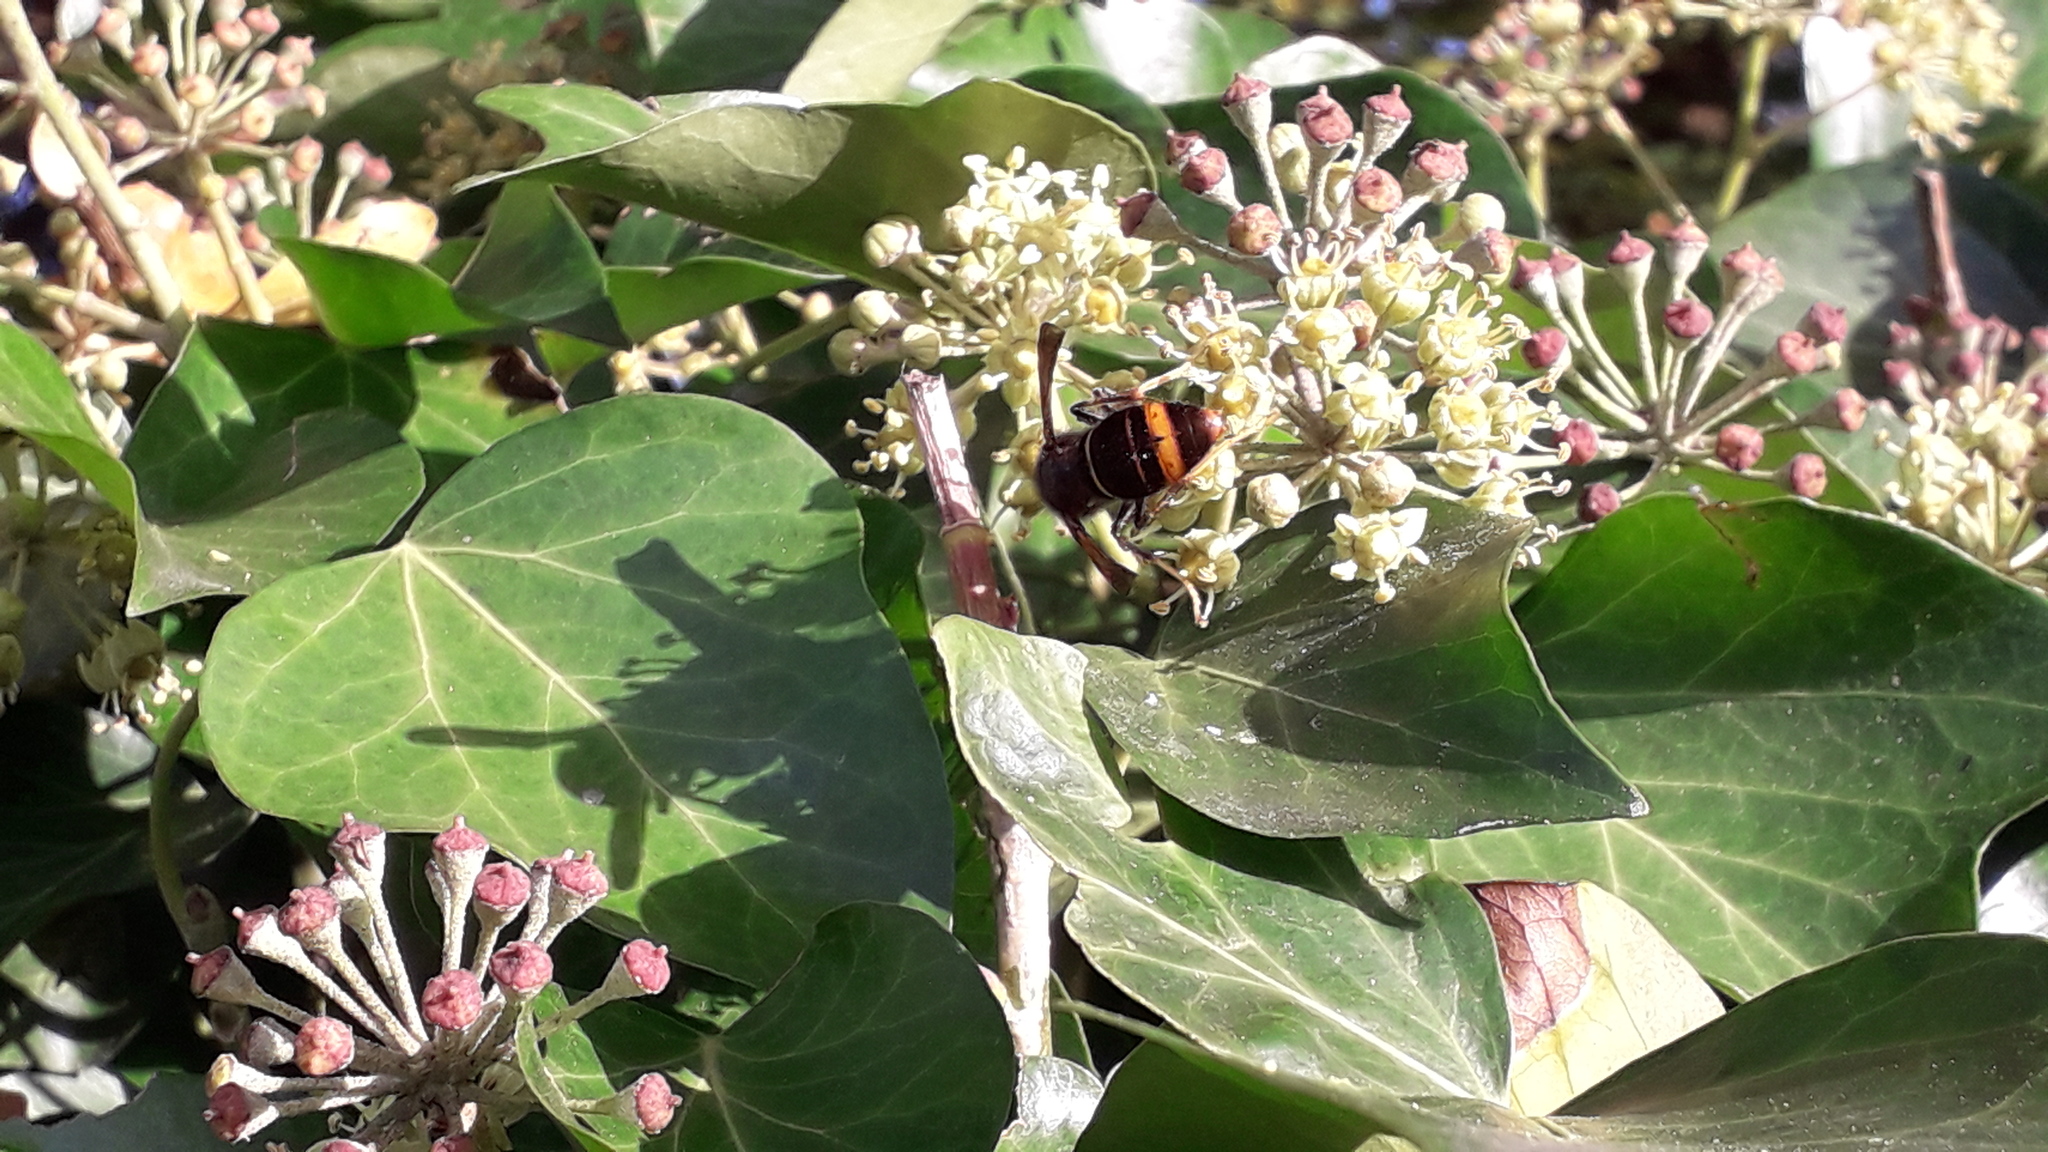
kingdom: Animalia
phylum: Arthropoda
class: Insecta
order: Hymenoptera
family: Vespidae
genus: Vespa
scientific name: Vespa velutina
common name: Asian hornet
